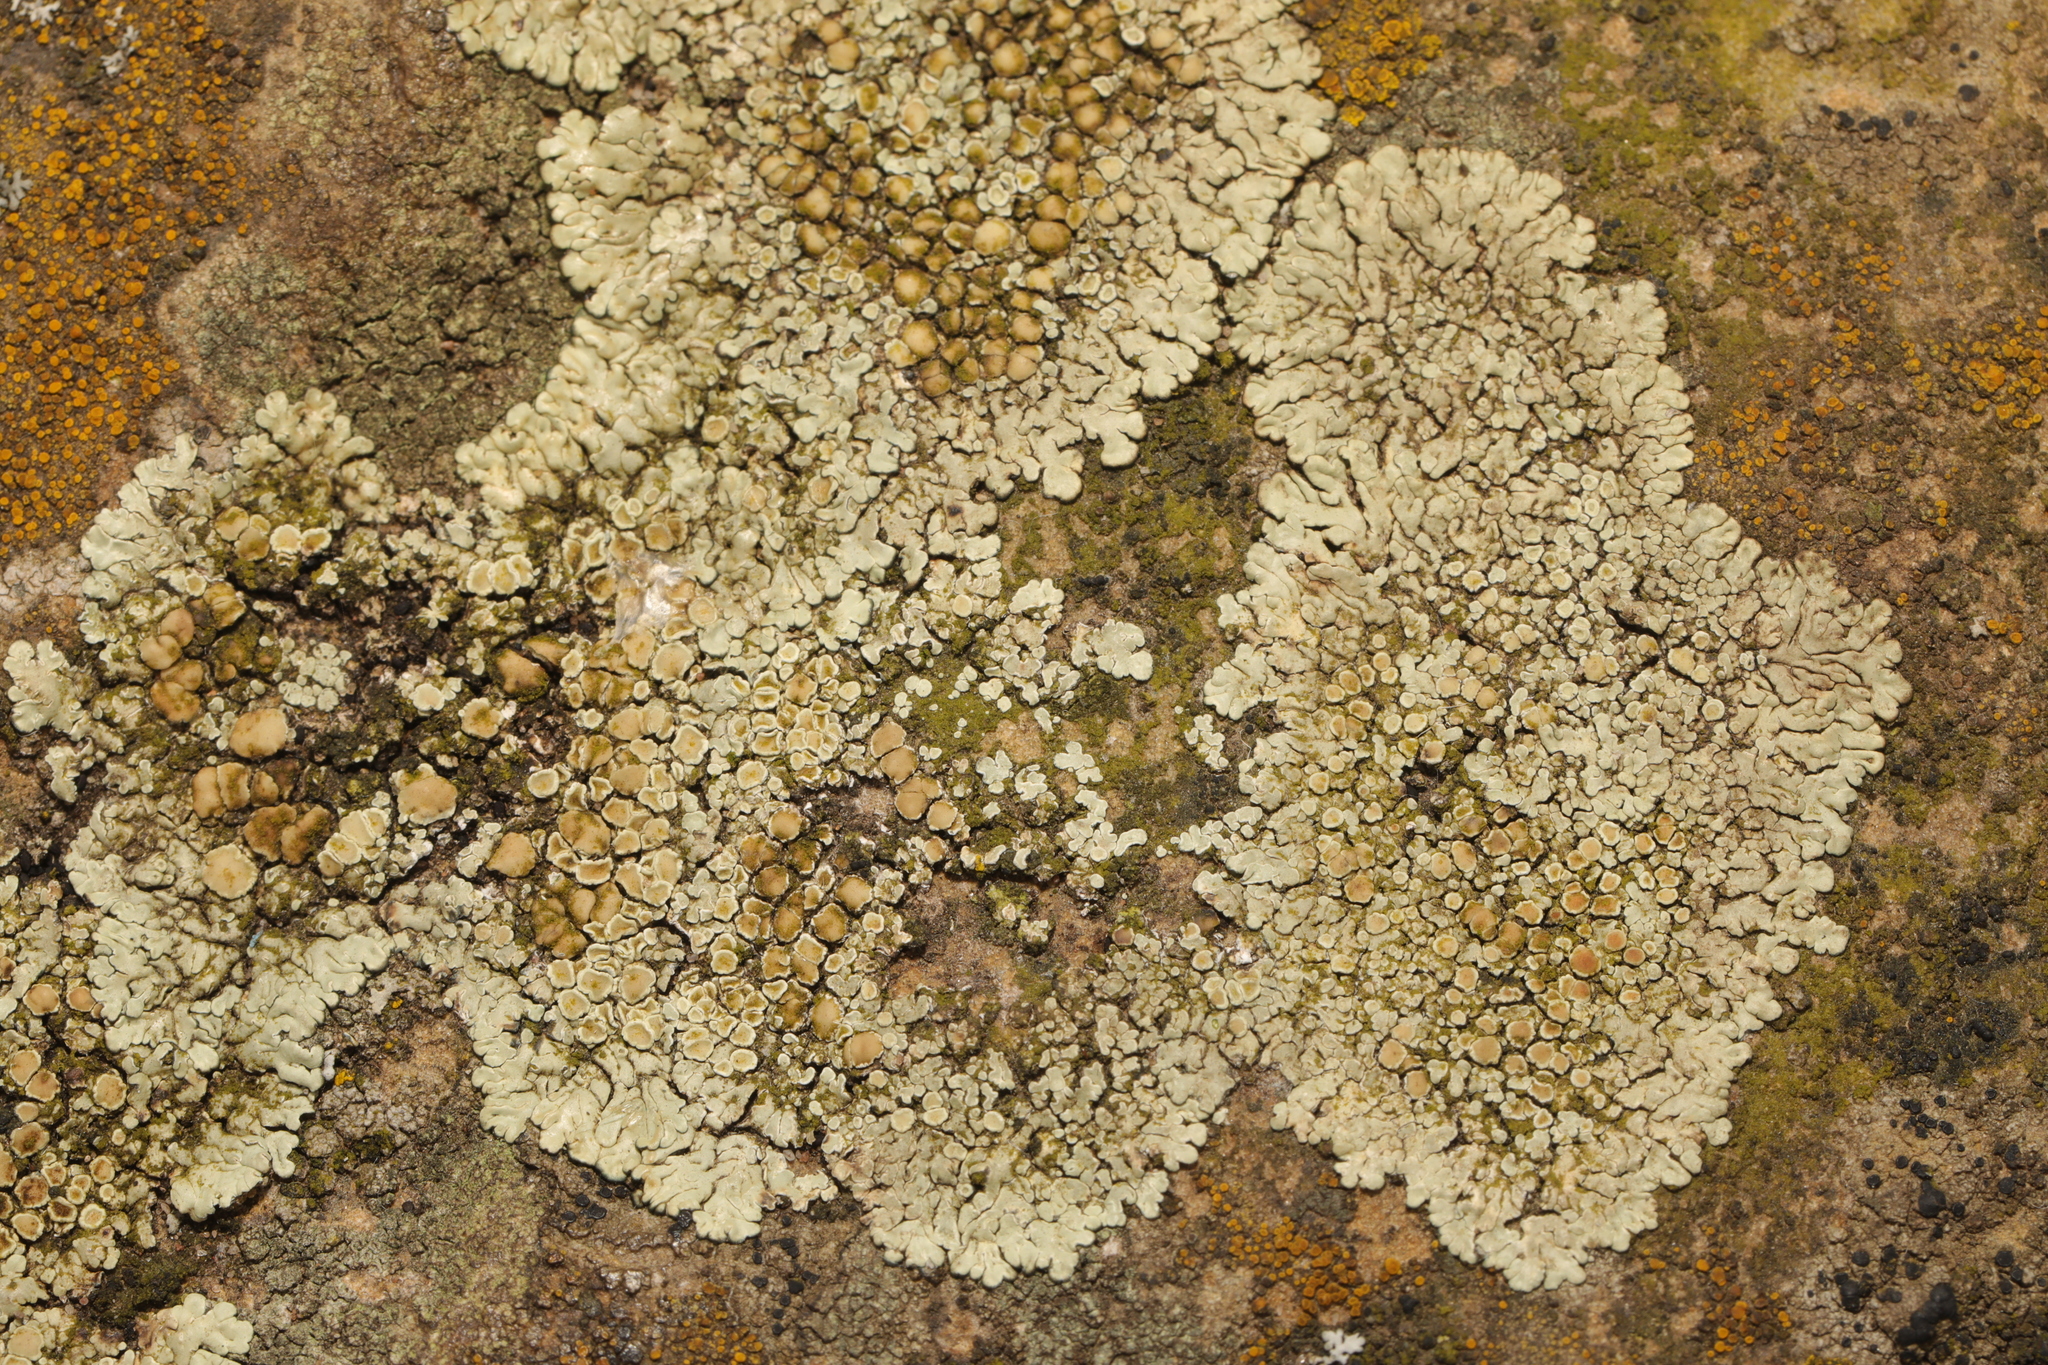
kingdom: Fungi
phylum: Ascomycota
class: Lecanoromycetes
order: Lecanorales
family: Lecanoraceae
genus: Protoparmeliopsis
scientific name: Protoparmeliopsis muralis
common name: Stonewall rim lichen
